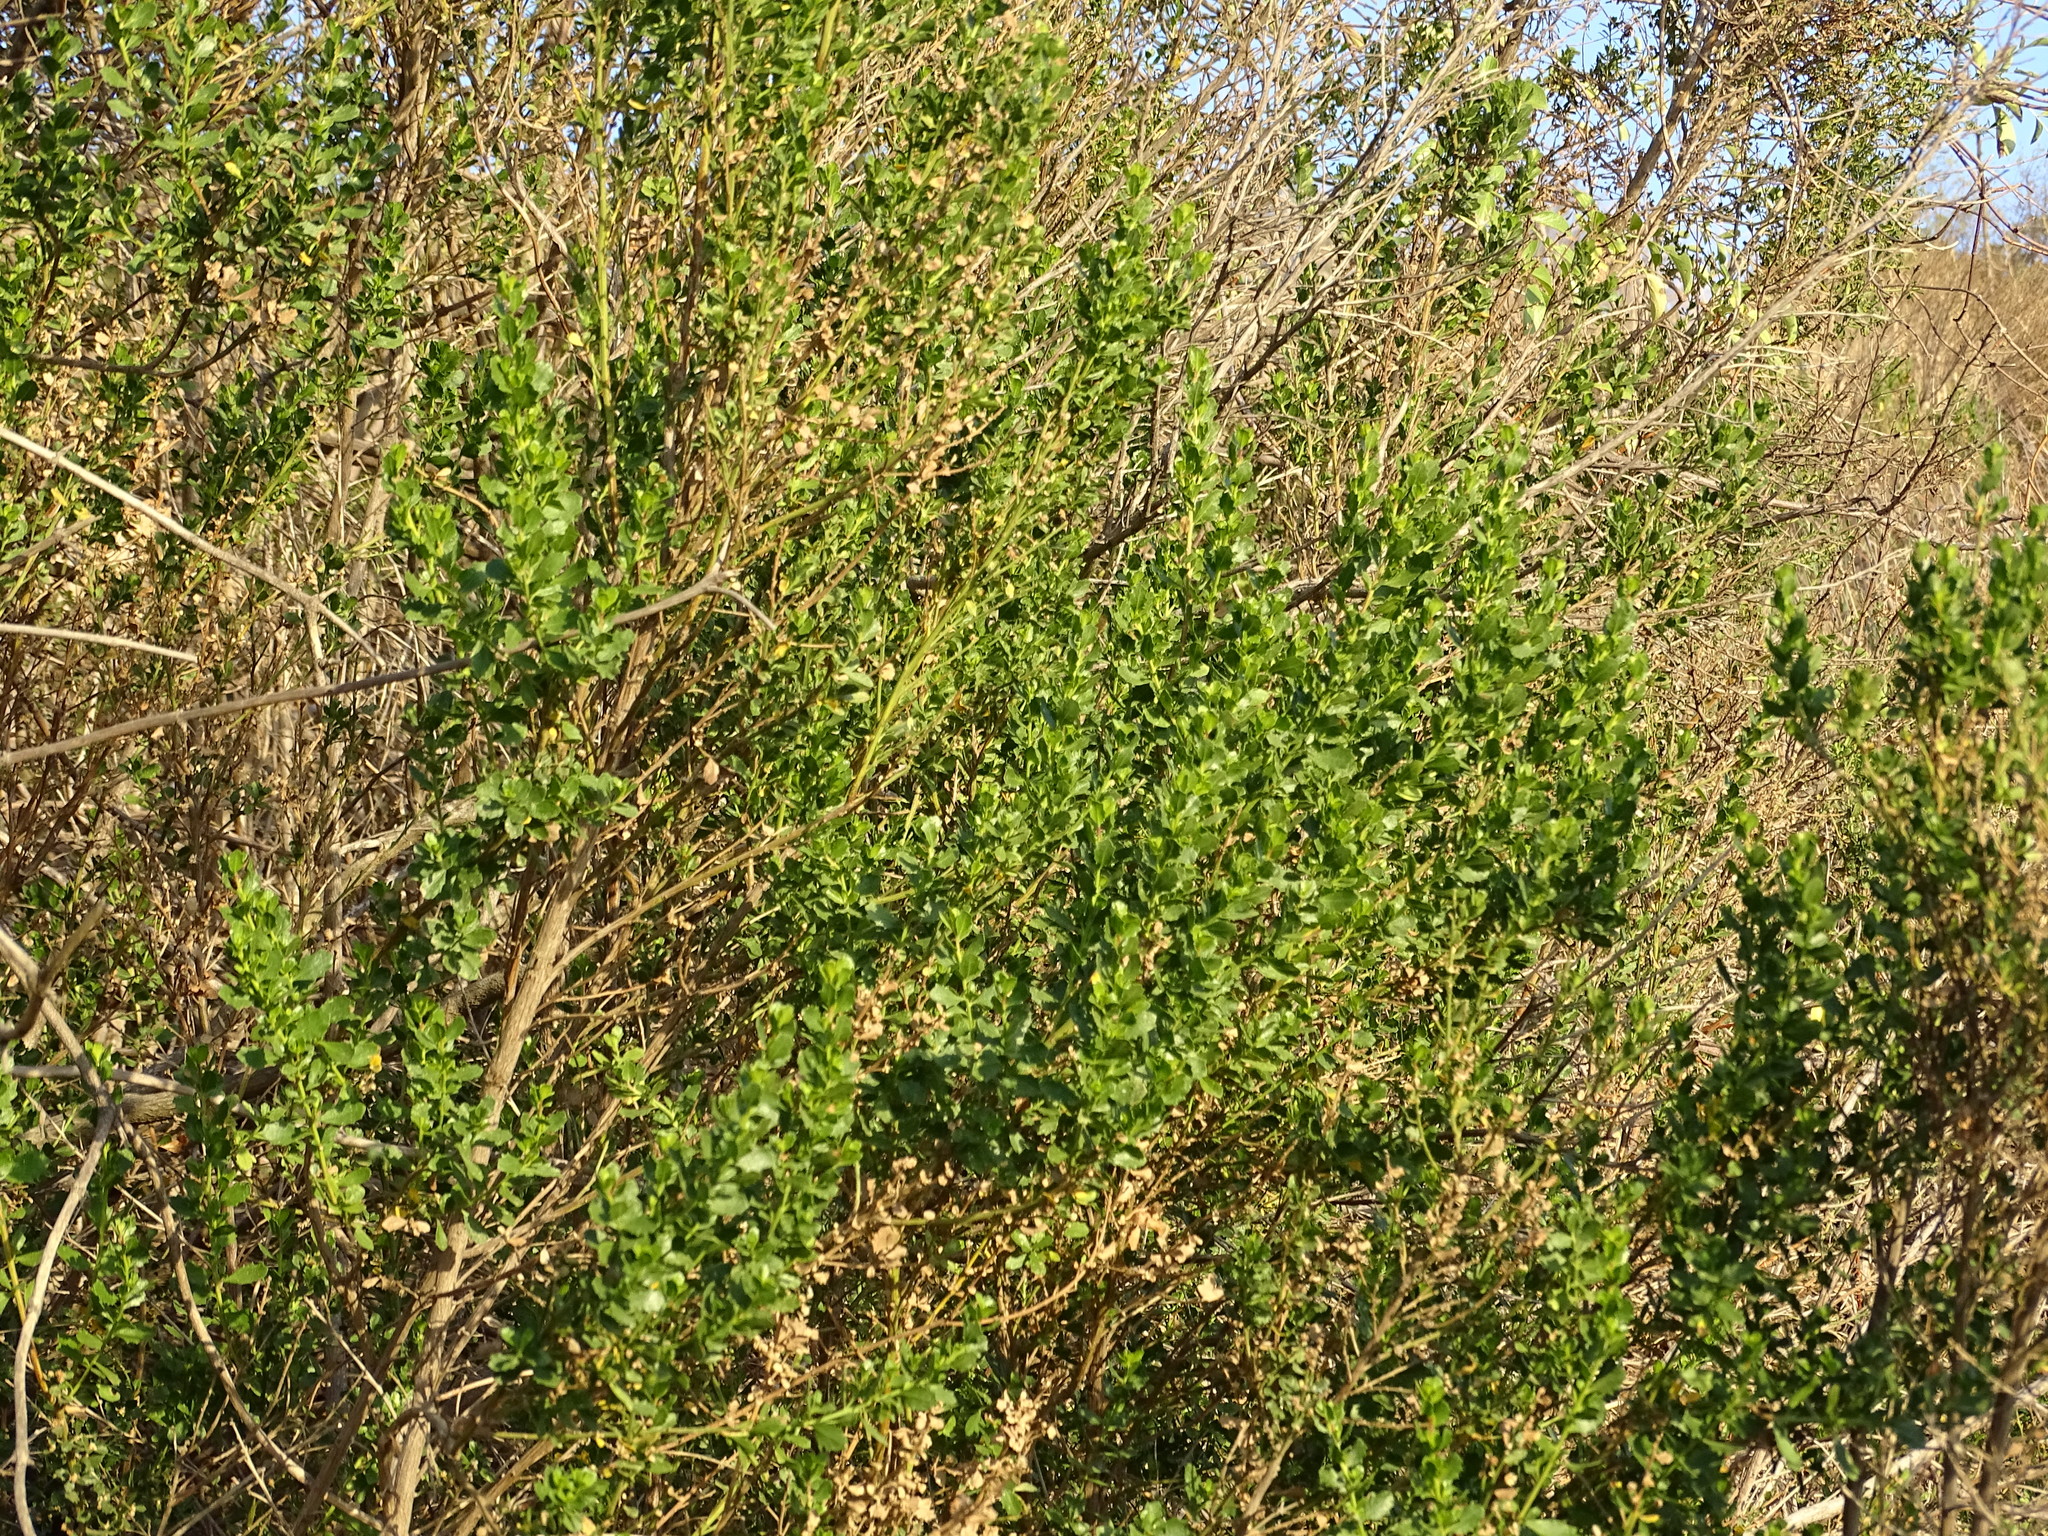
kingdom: Plantae
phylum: Tracheophyta
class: Magnoliopsida
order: Asterales
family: Asteraceae
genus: Baccharis
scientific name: Baccharis pilularis
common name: Coyotebrush
